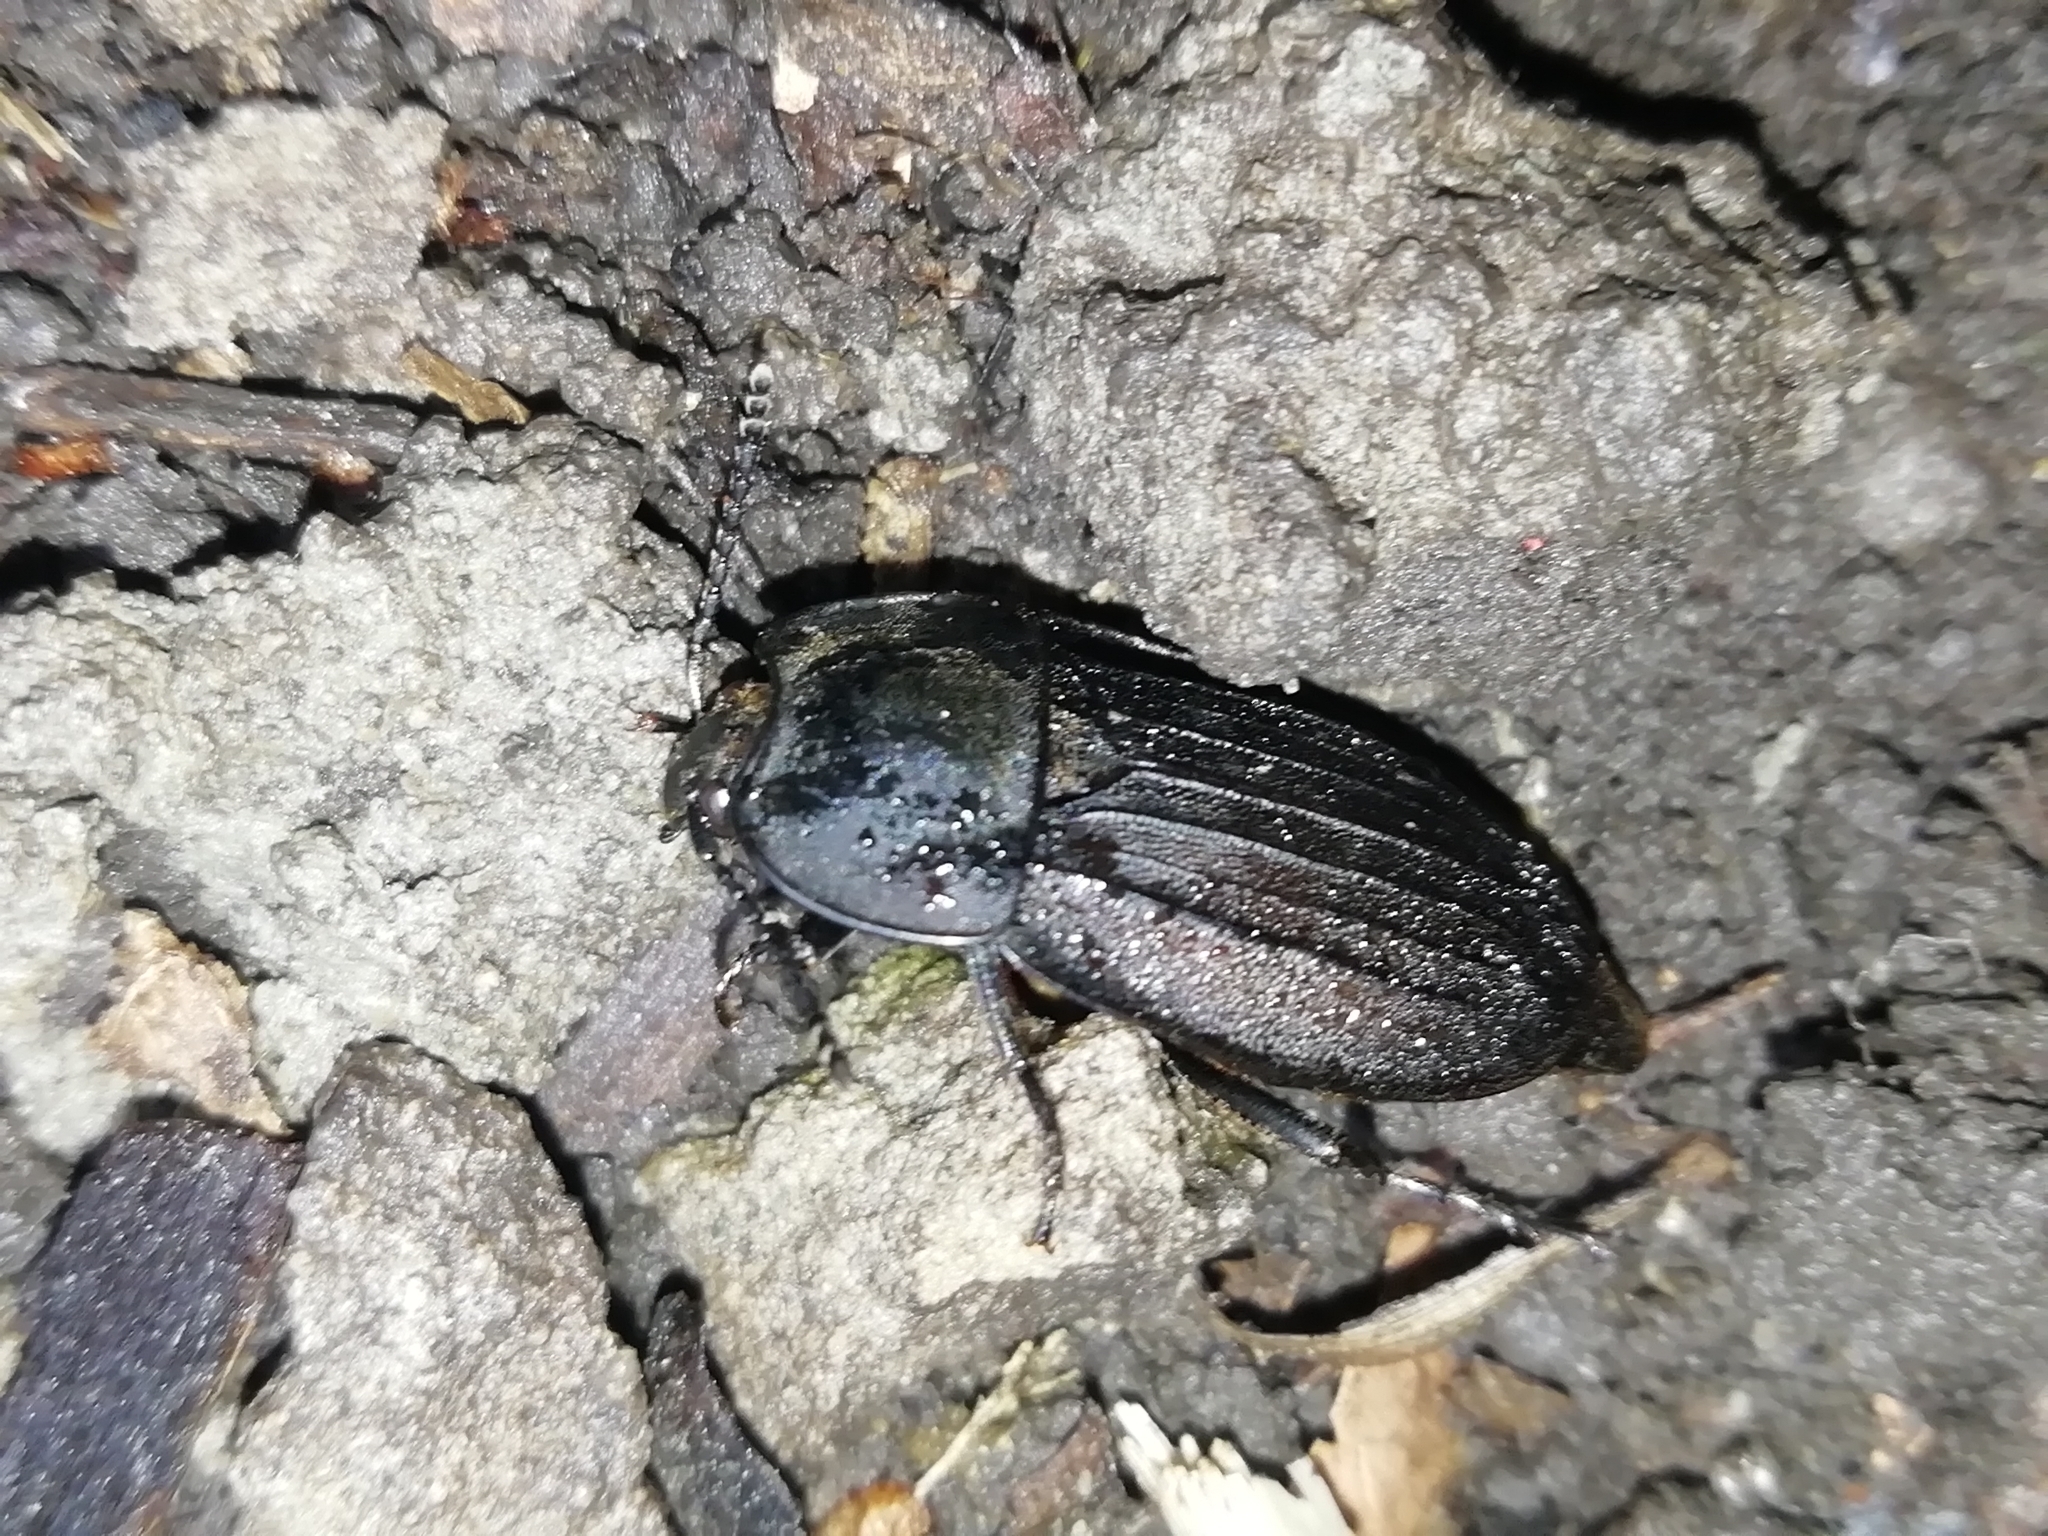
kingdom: Animalia
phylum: Arthropoda
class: Insecta
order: Coleoptera
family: Staphylinidae
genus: Silpha
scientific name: Silpha carinata
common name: Silphid beetle
